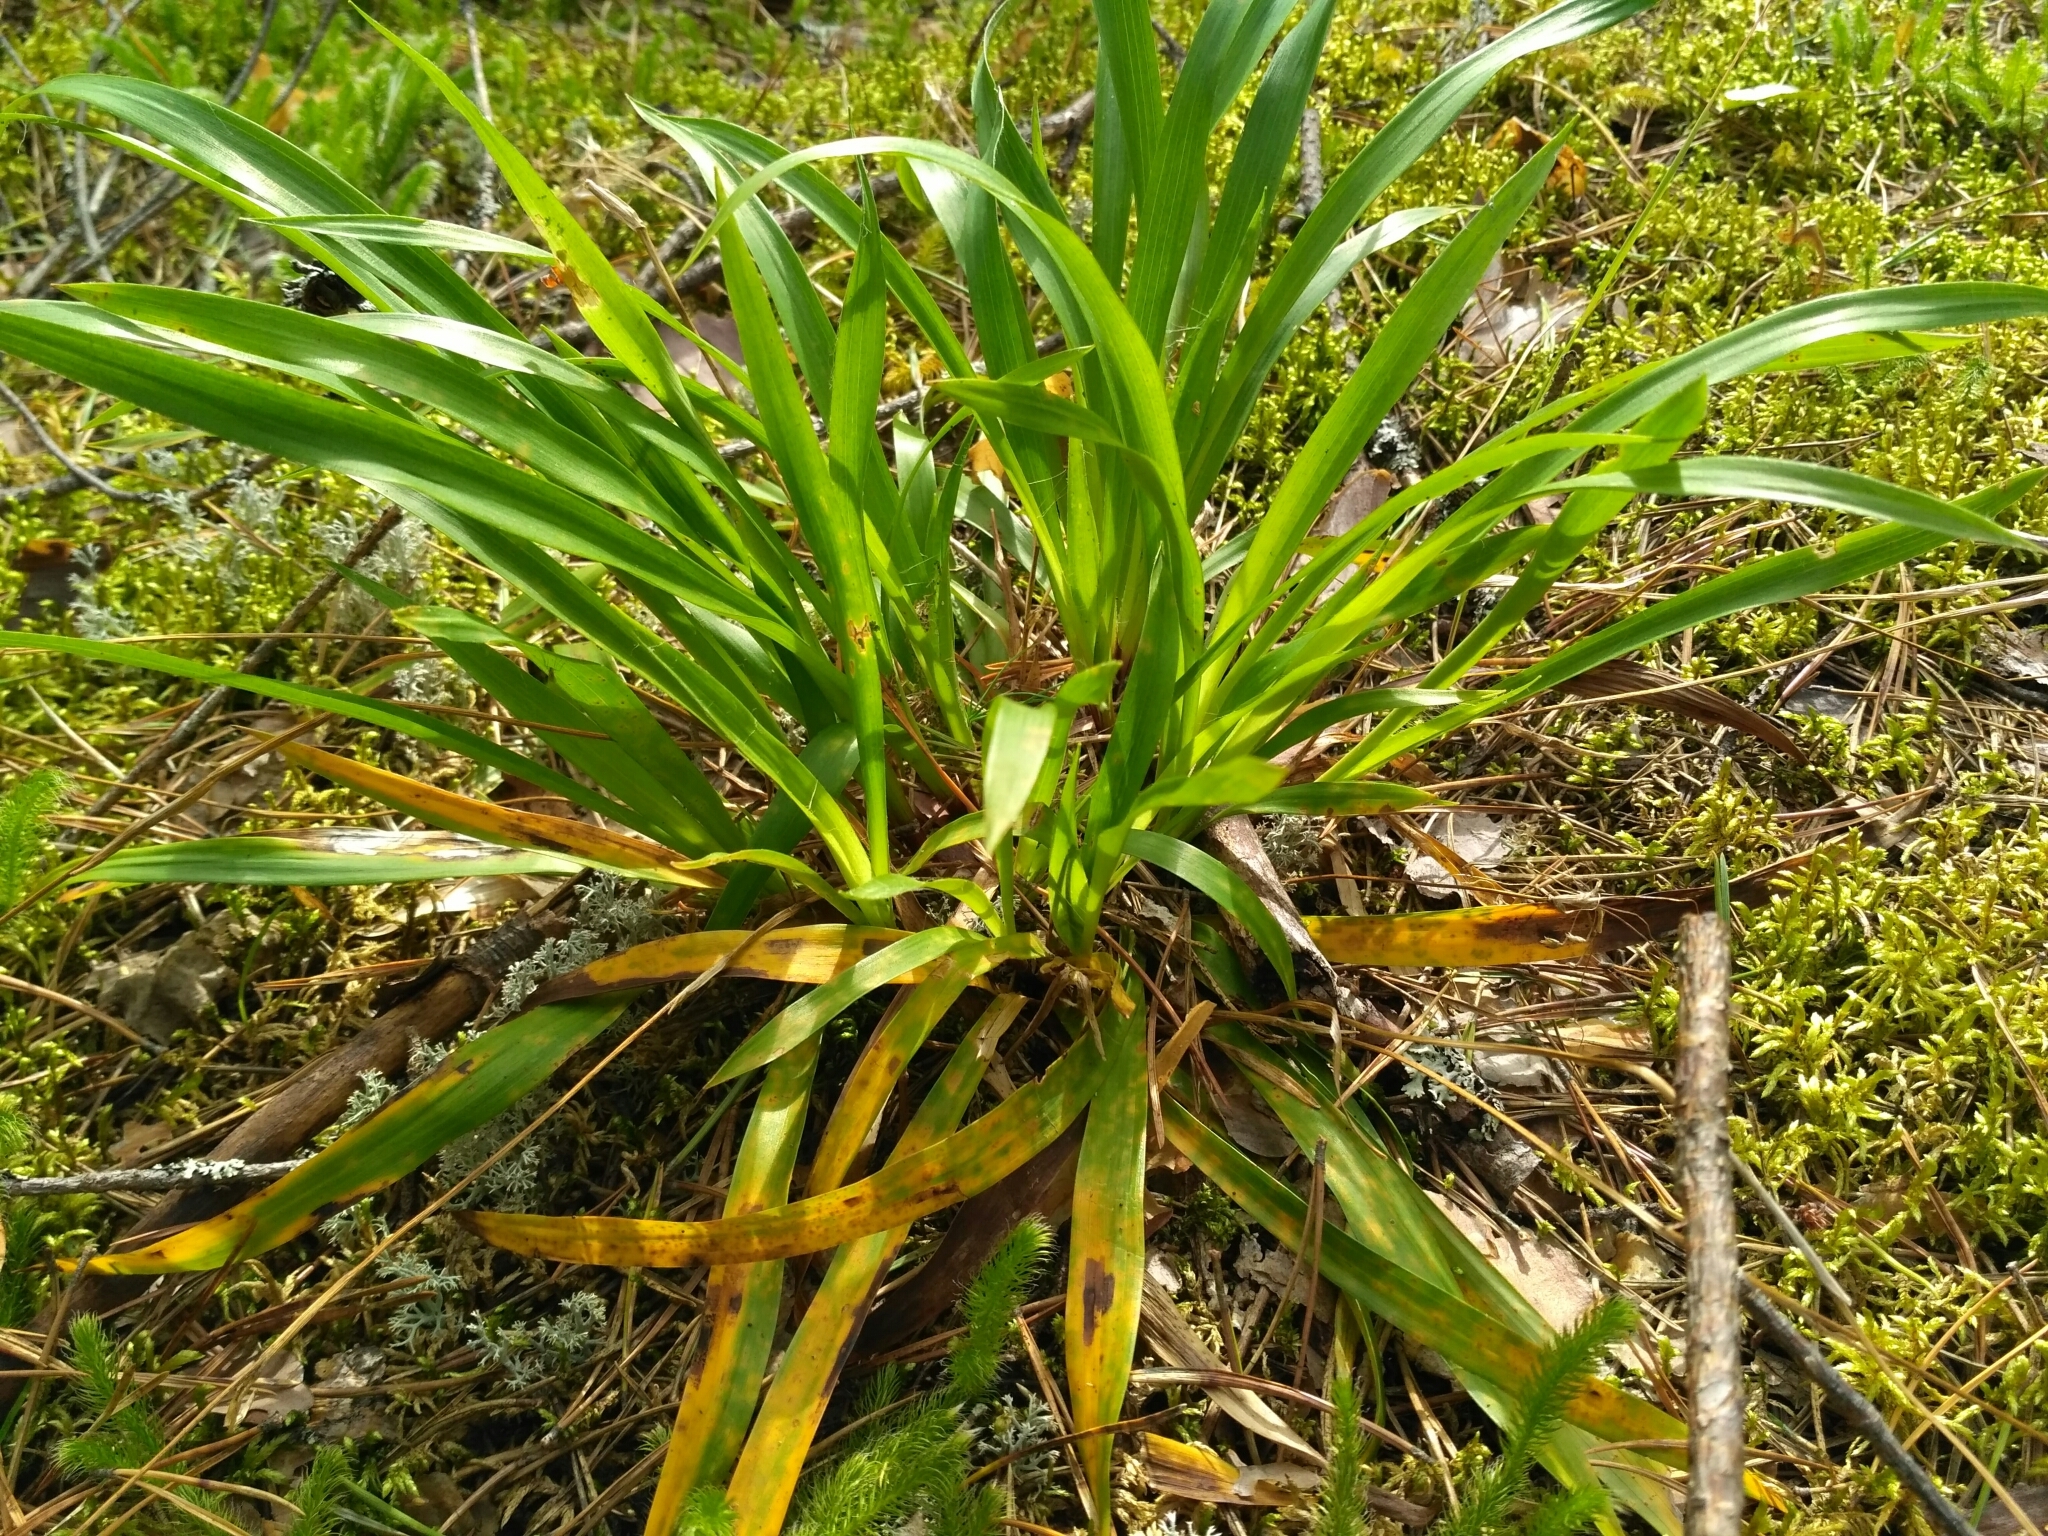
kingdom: Plantae
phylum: Tracheophyta
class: Liliopsida
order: Poales
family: Juncaceae
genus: Luzula
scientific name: Luzula pilosa
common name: Hairy wood-rush
